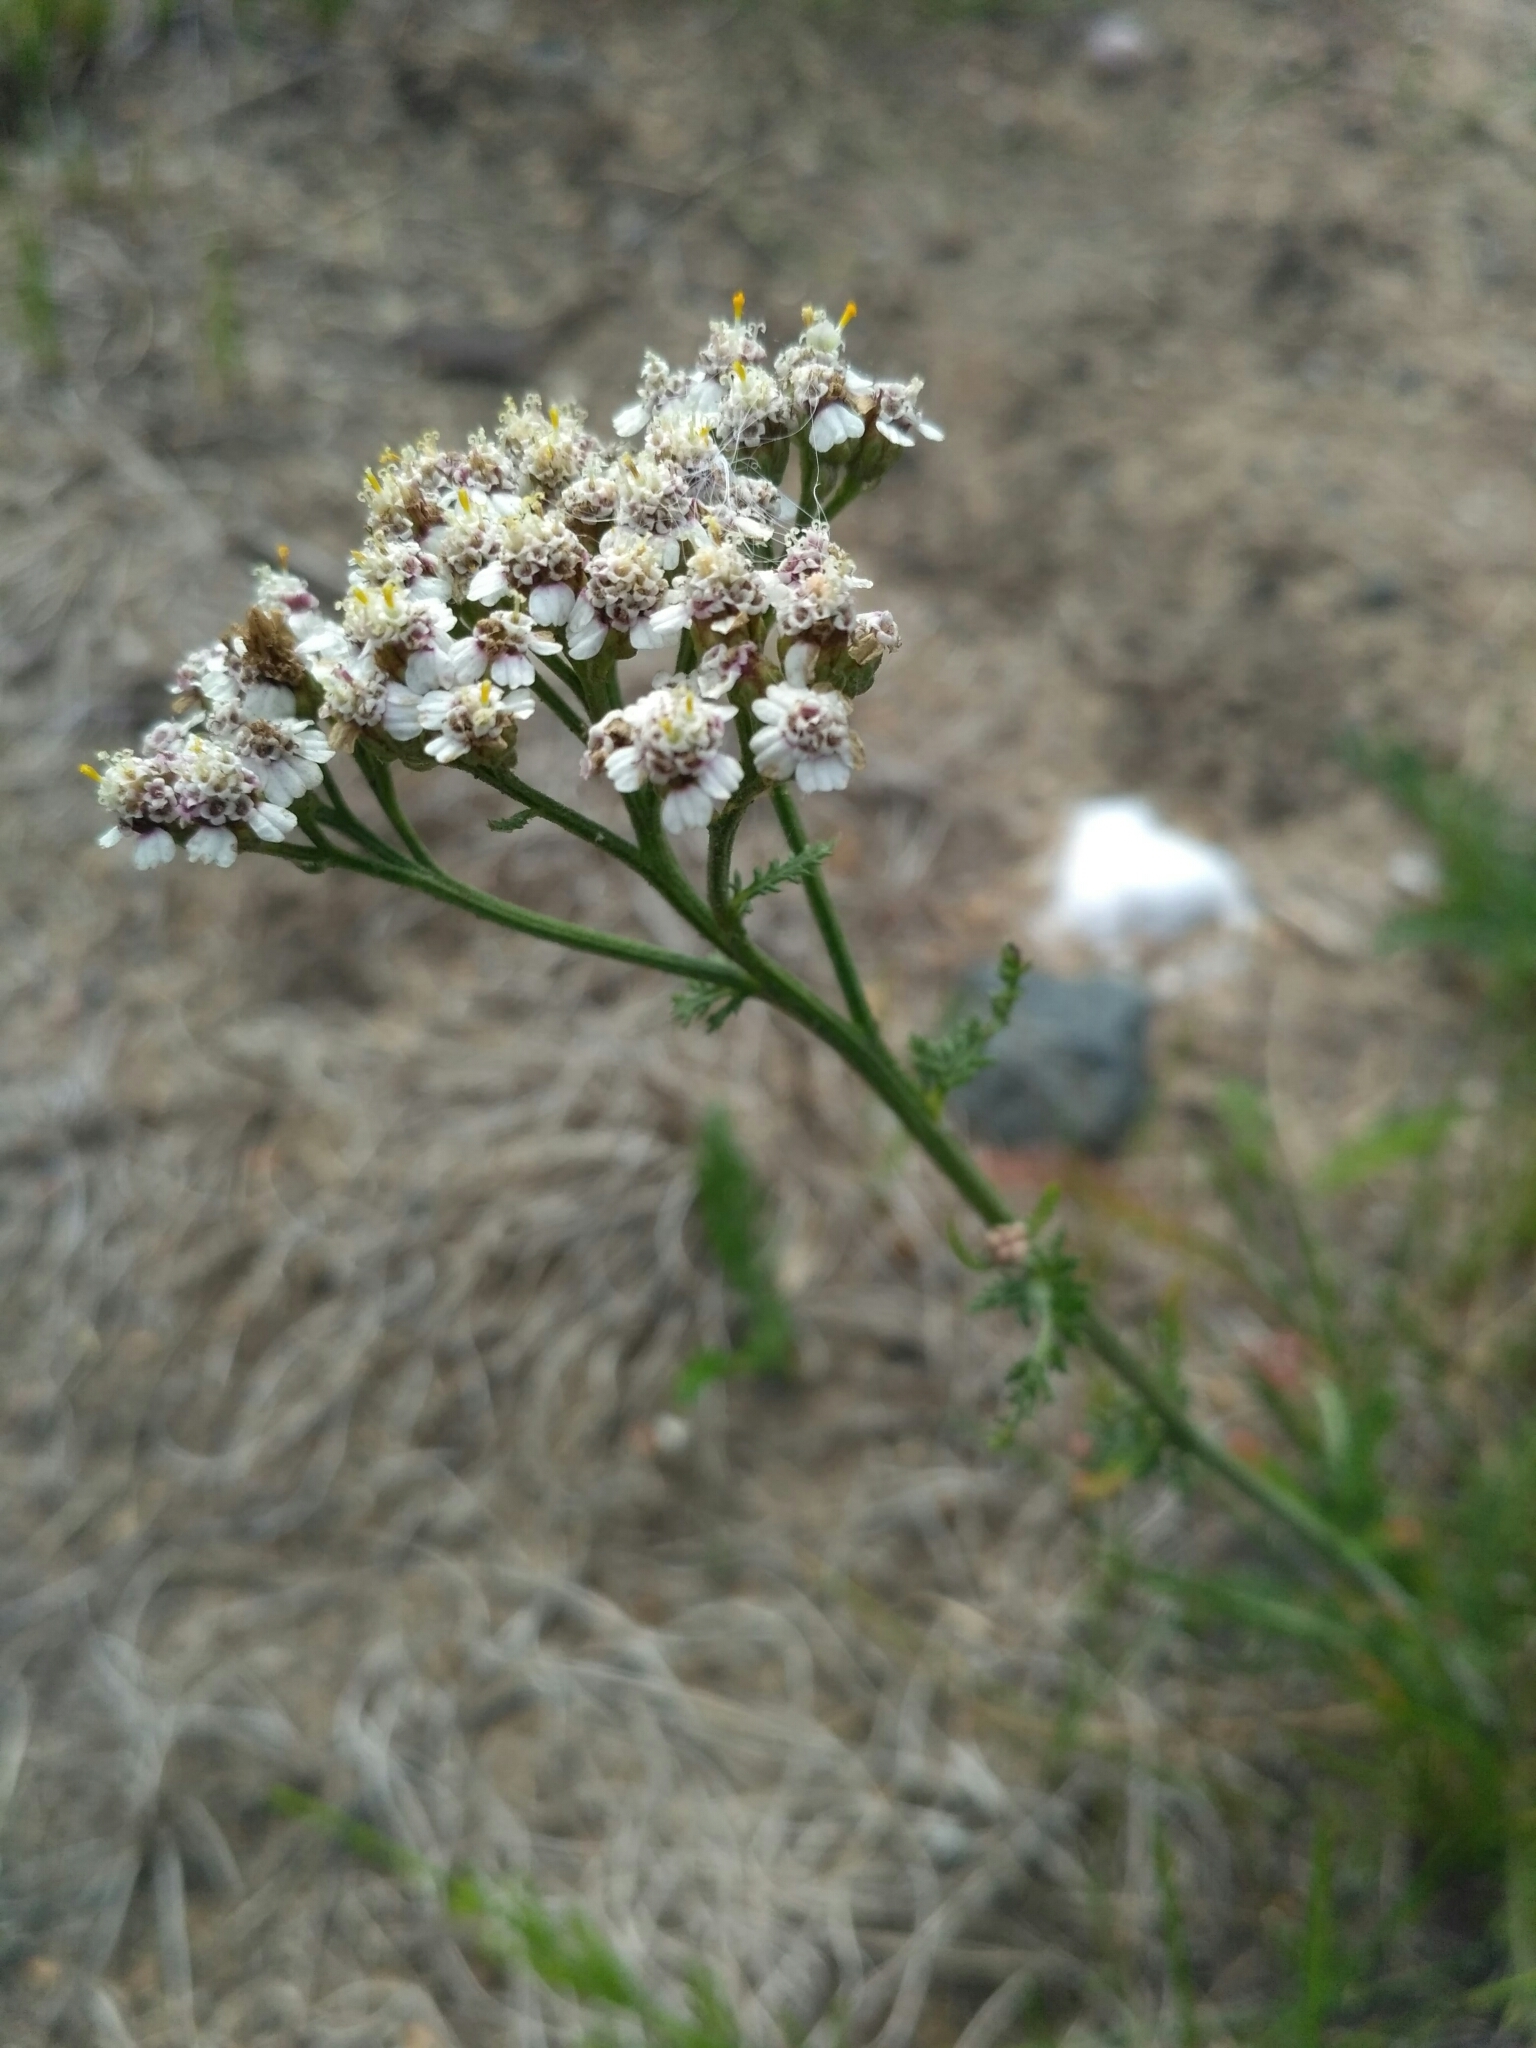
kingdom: Plantae
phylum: Tracheophyta
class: Magnoliopsida
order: Asterales
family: Asteraceae
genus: Achillea
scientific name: Achillea millefolium
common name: Yarrow
